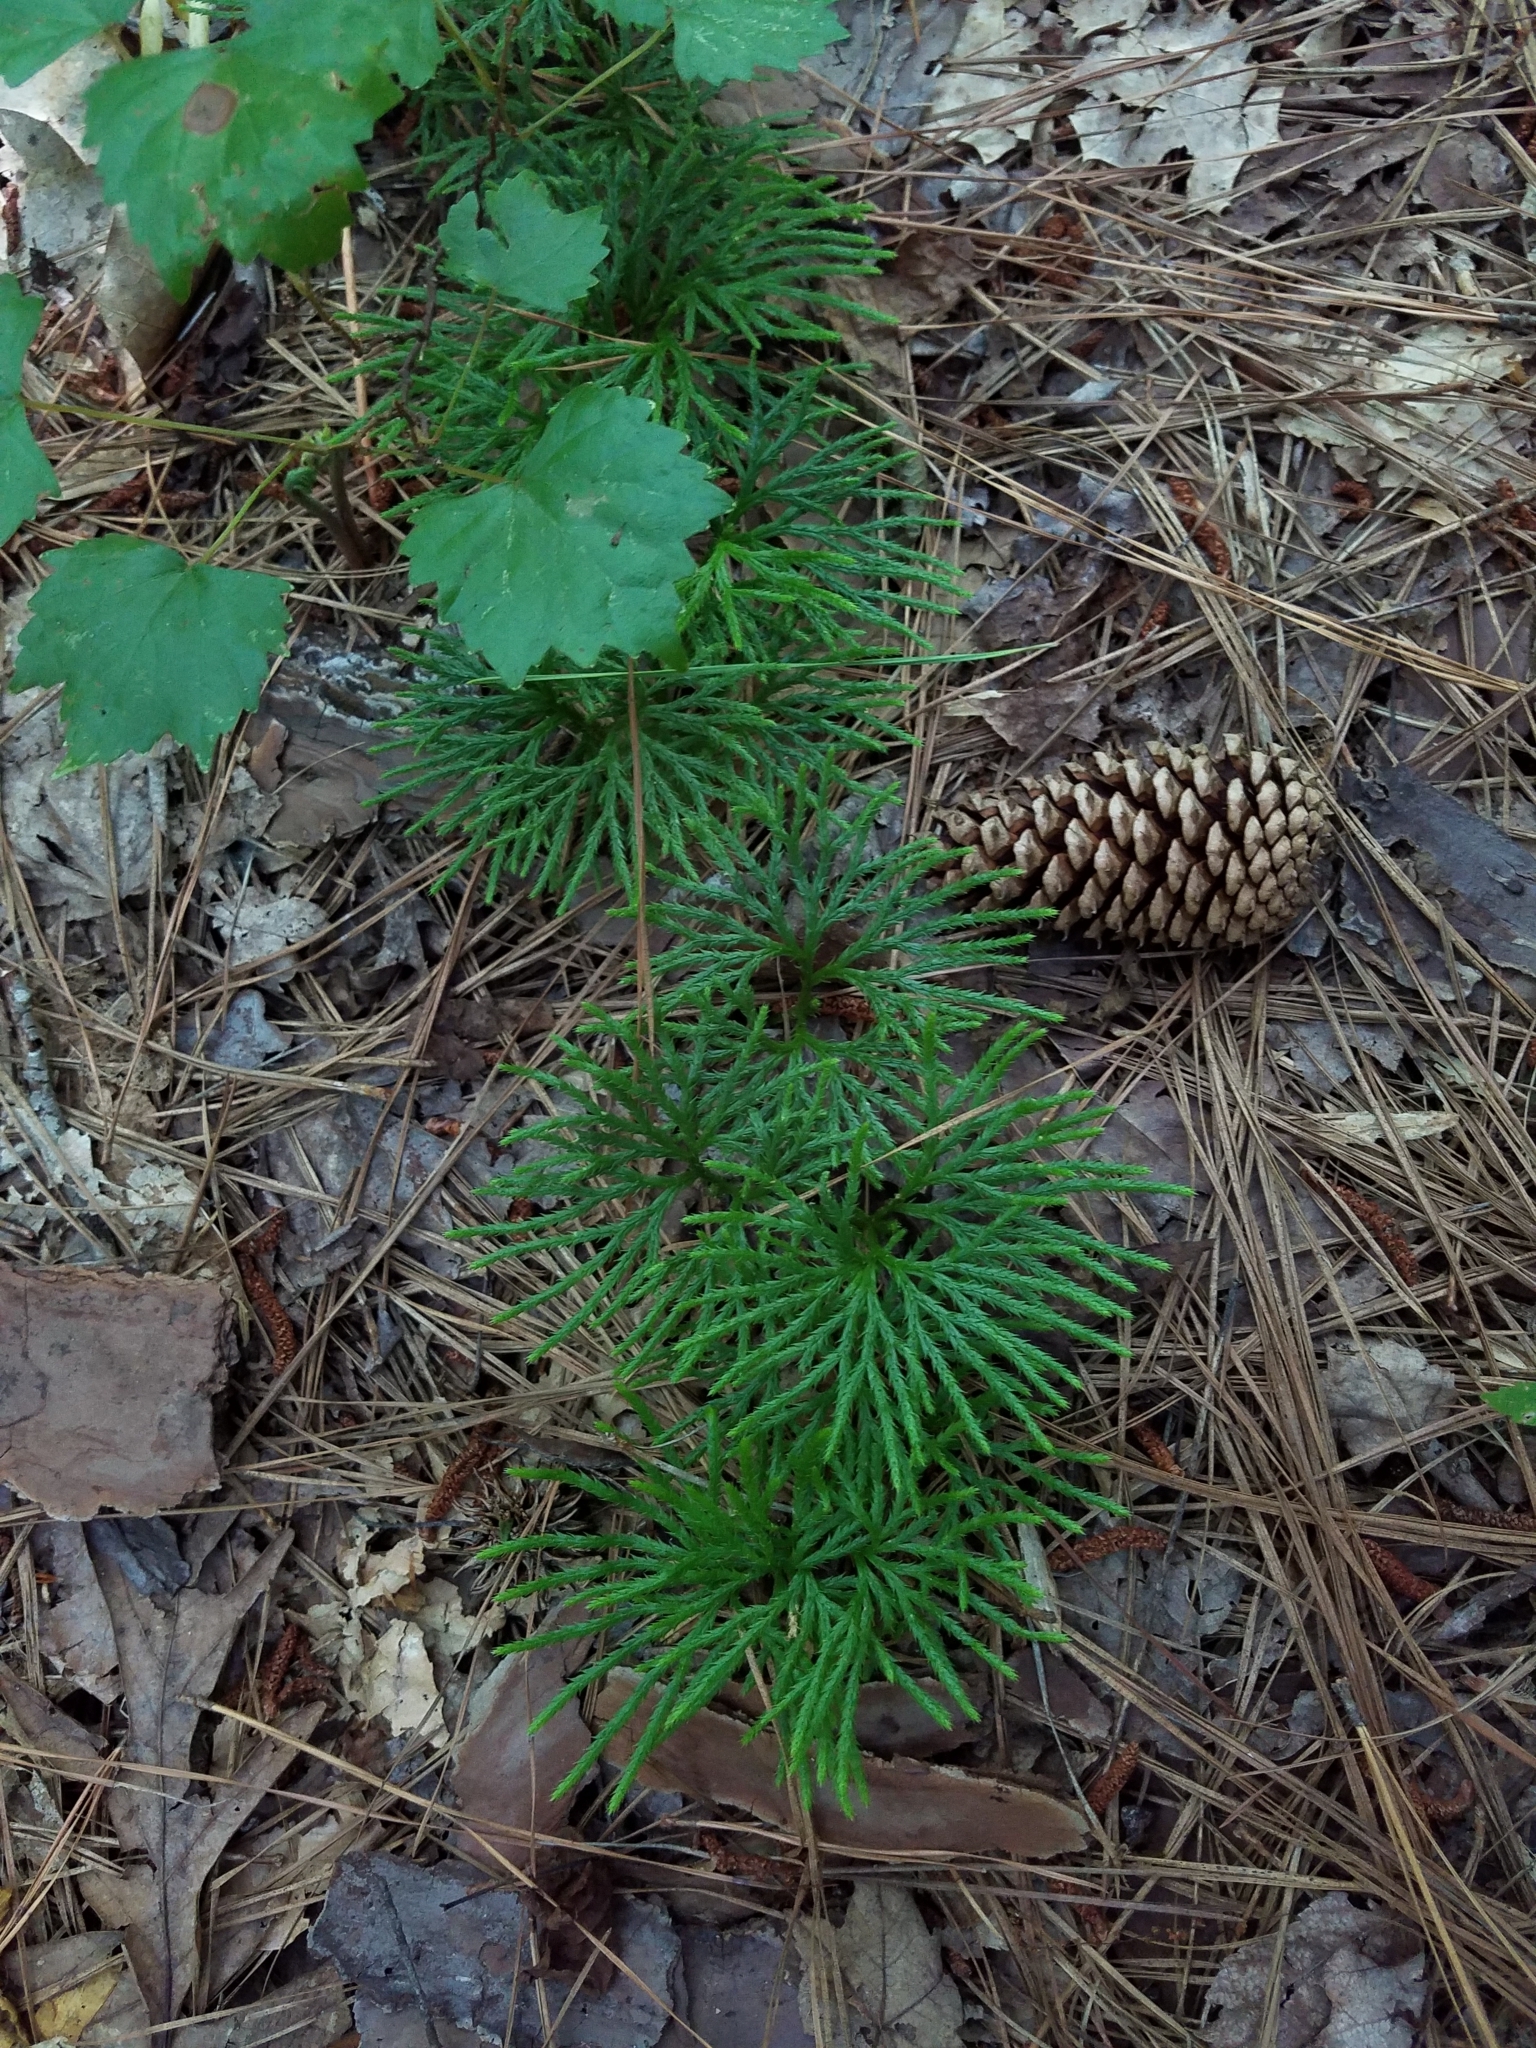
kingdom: Plantae
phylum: Tracheophyta
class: Lycopodiopsida
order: Lycopodiales
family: Lycopodiaceae
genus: Diphasiastrum
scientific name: Diphasiastrum digitatum
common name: Southern running-pine
